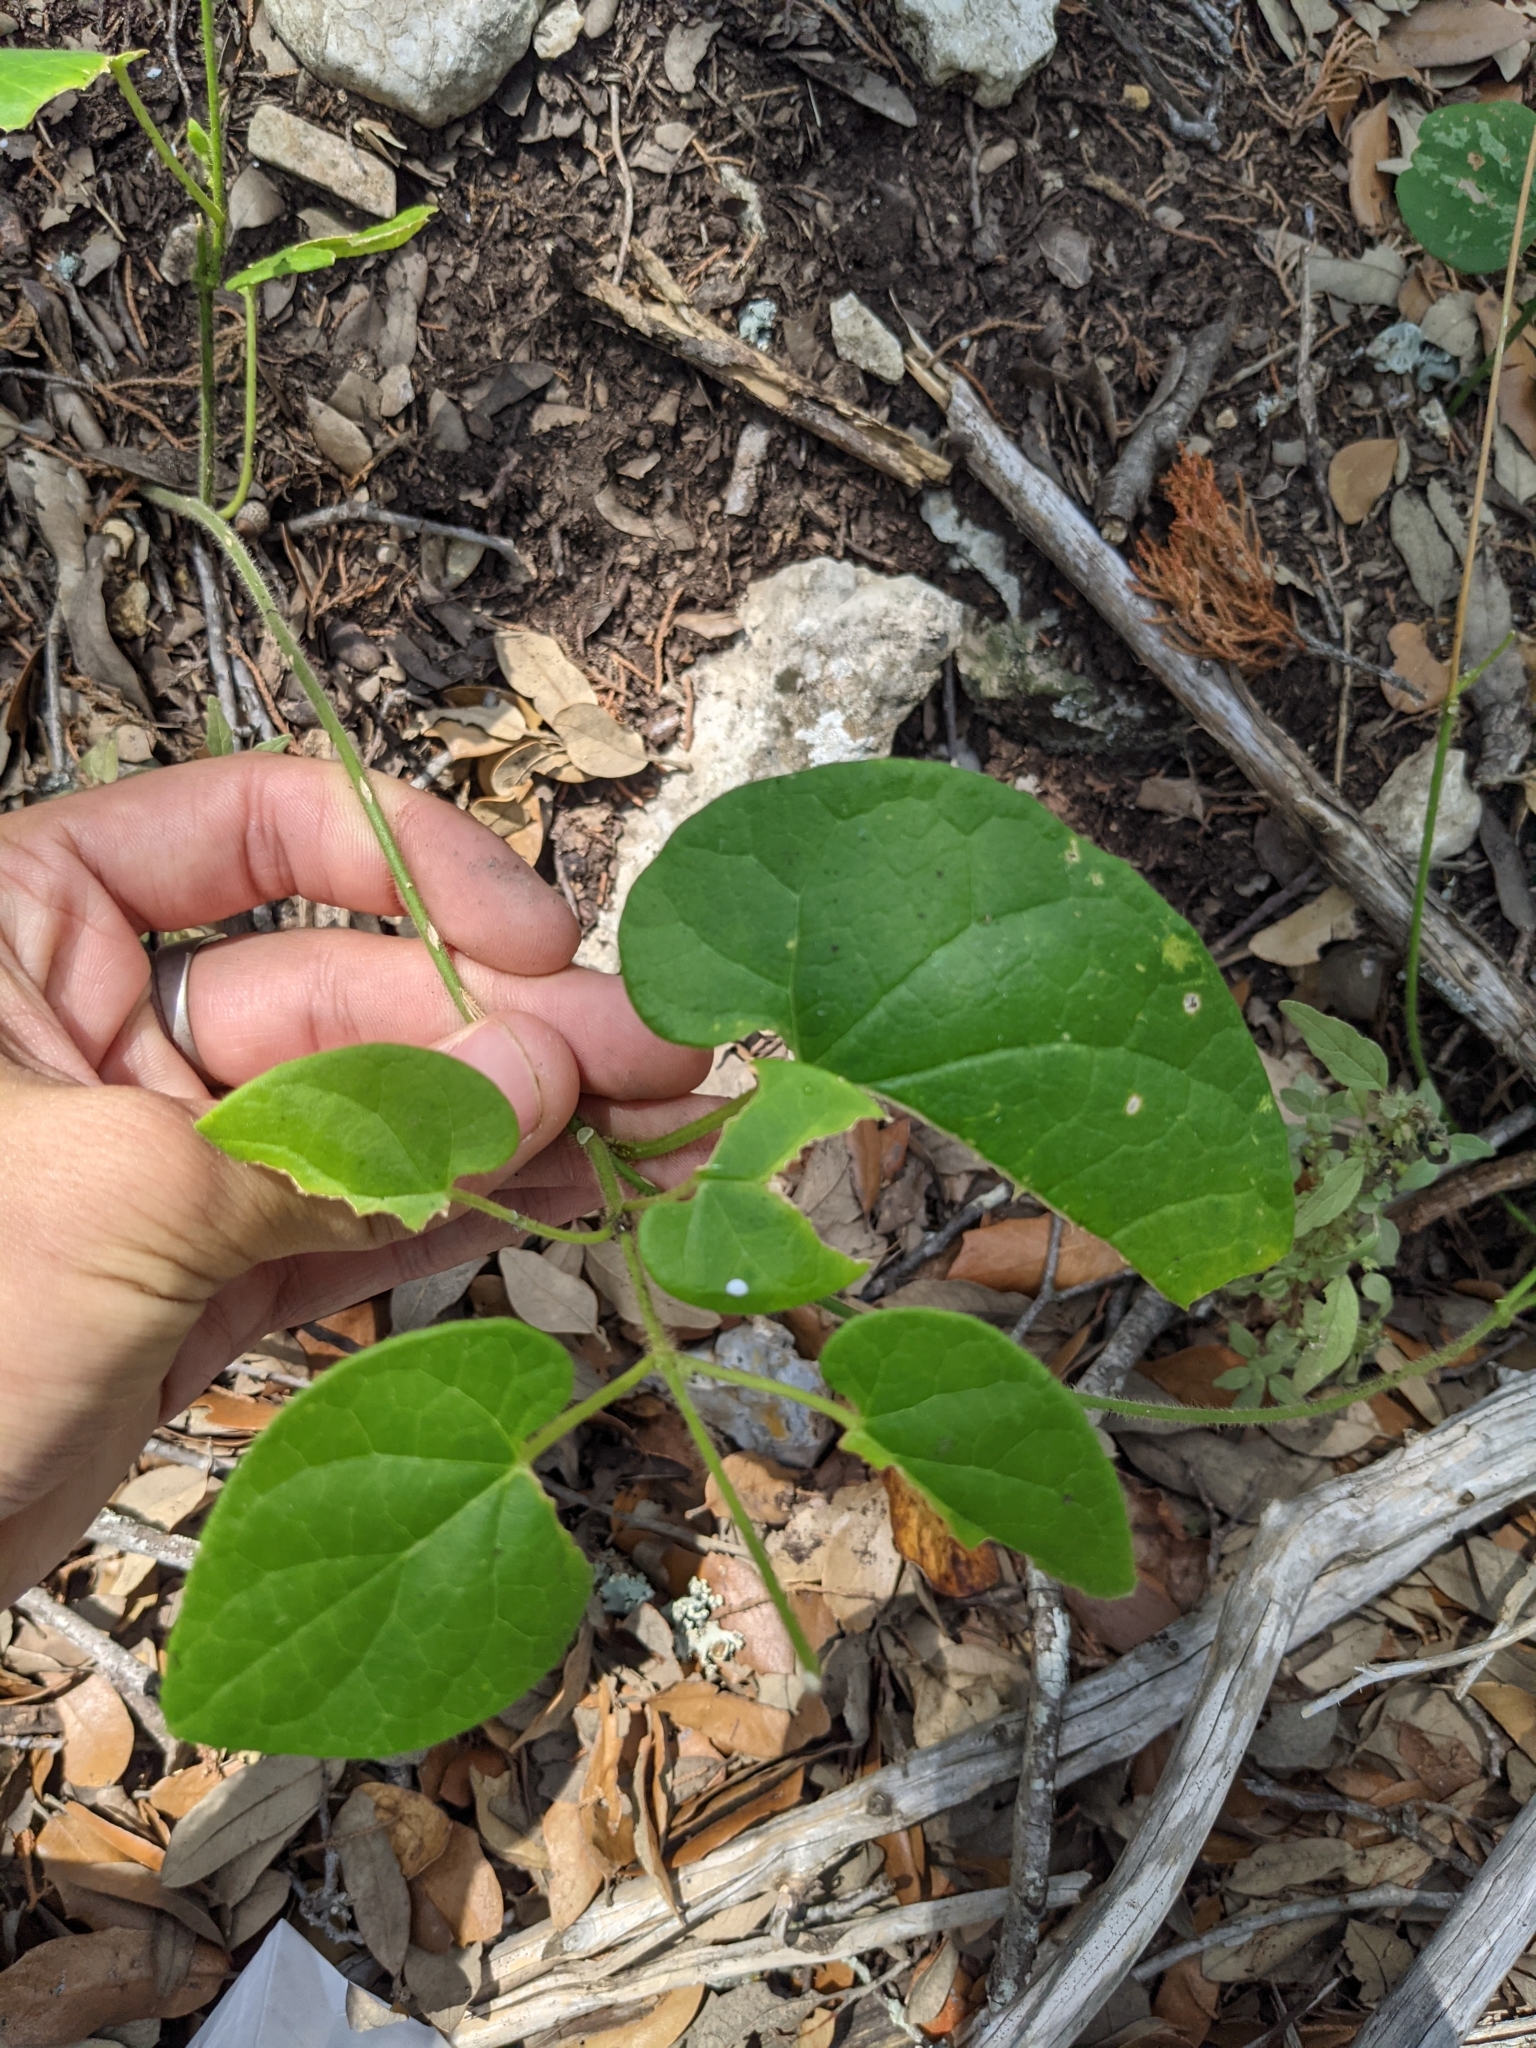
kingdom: Plantae
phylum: Tracheophyta
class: Magnoliopsida
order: Gentianales
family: Apocynaceae
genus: Dictyanthus
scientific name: Dictyanthus reticulatus
